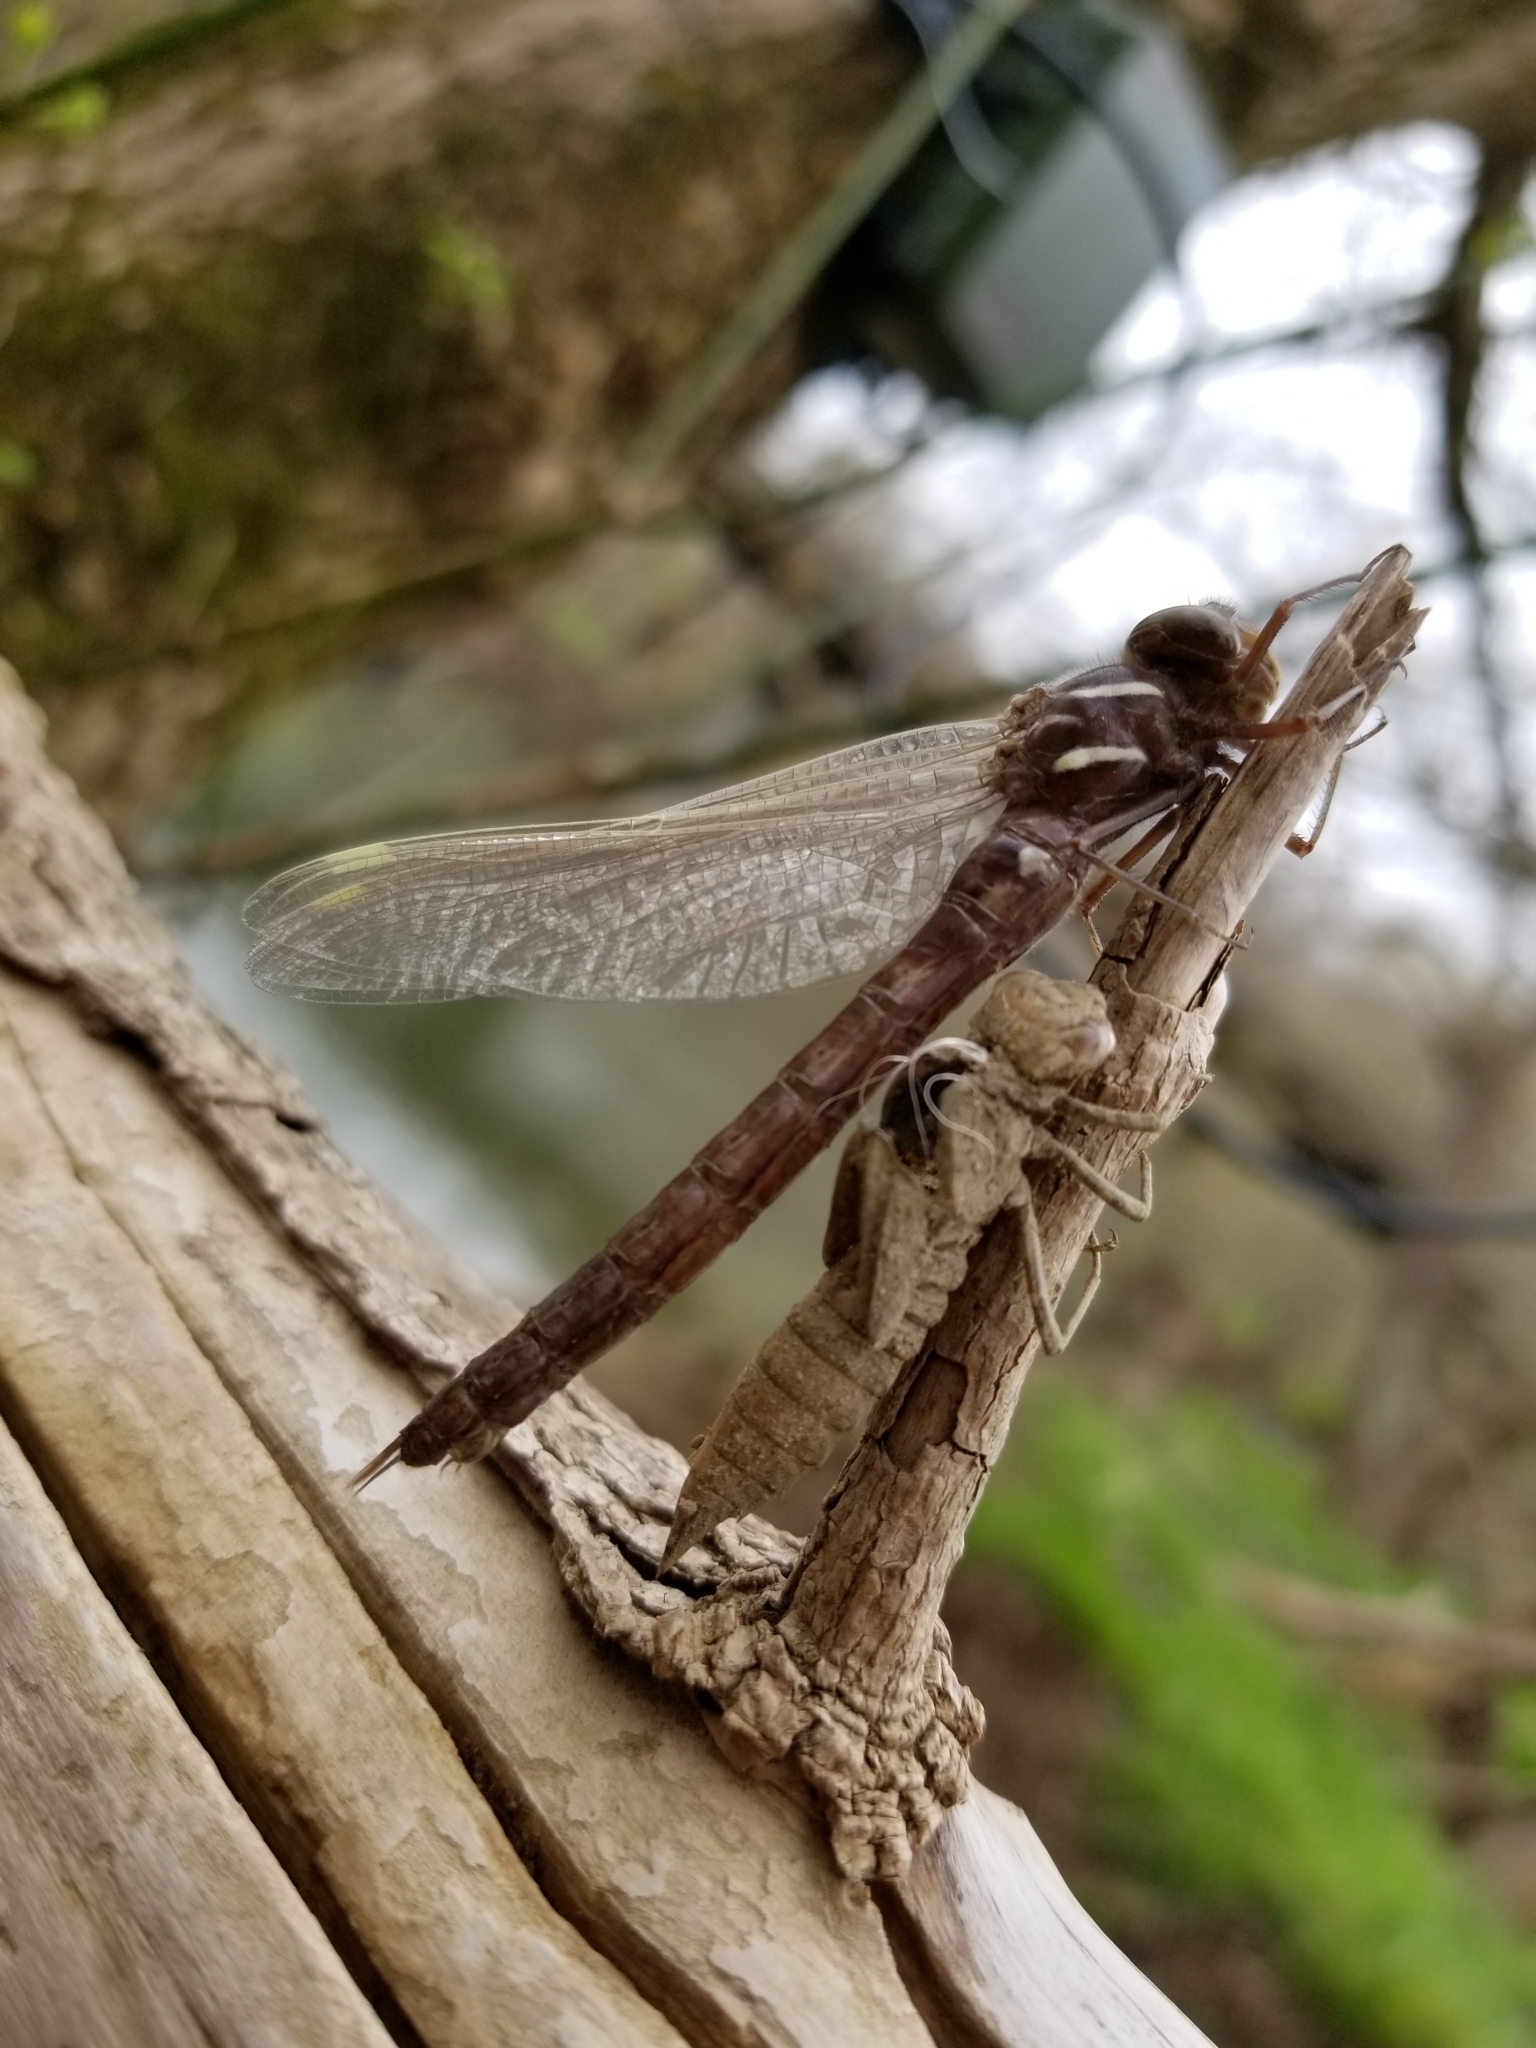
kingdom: Animalia
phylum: Arthropoda
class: Insecta
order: Odonata
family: Aeshnidae
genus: Basiaeschna
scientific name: Basiaeschna janata
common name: Springtime darner
